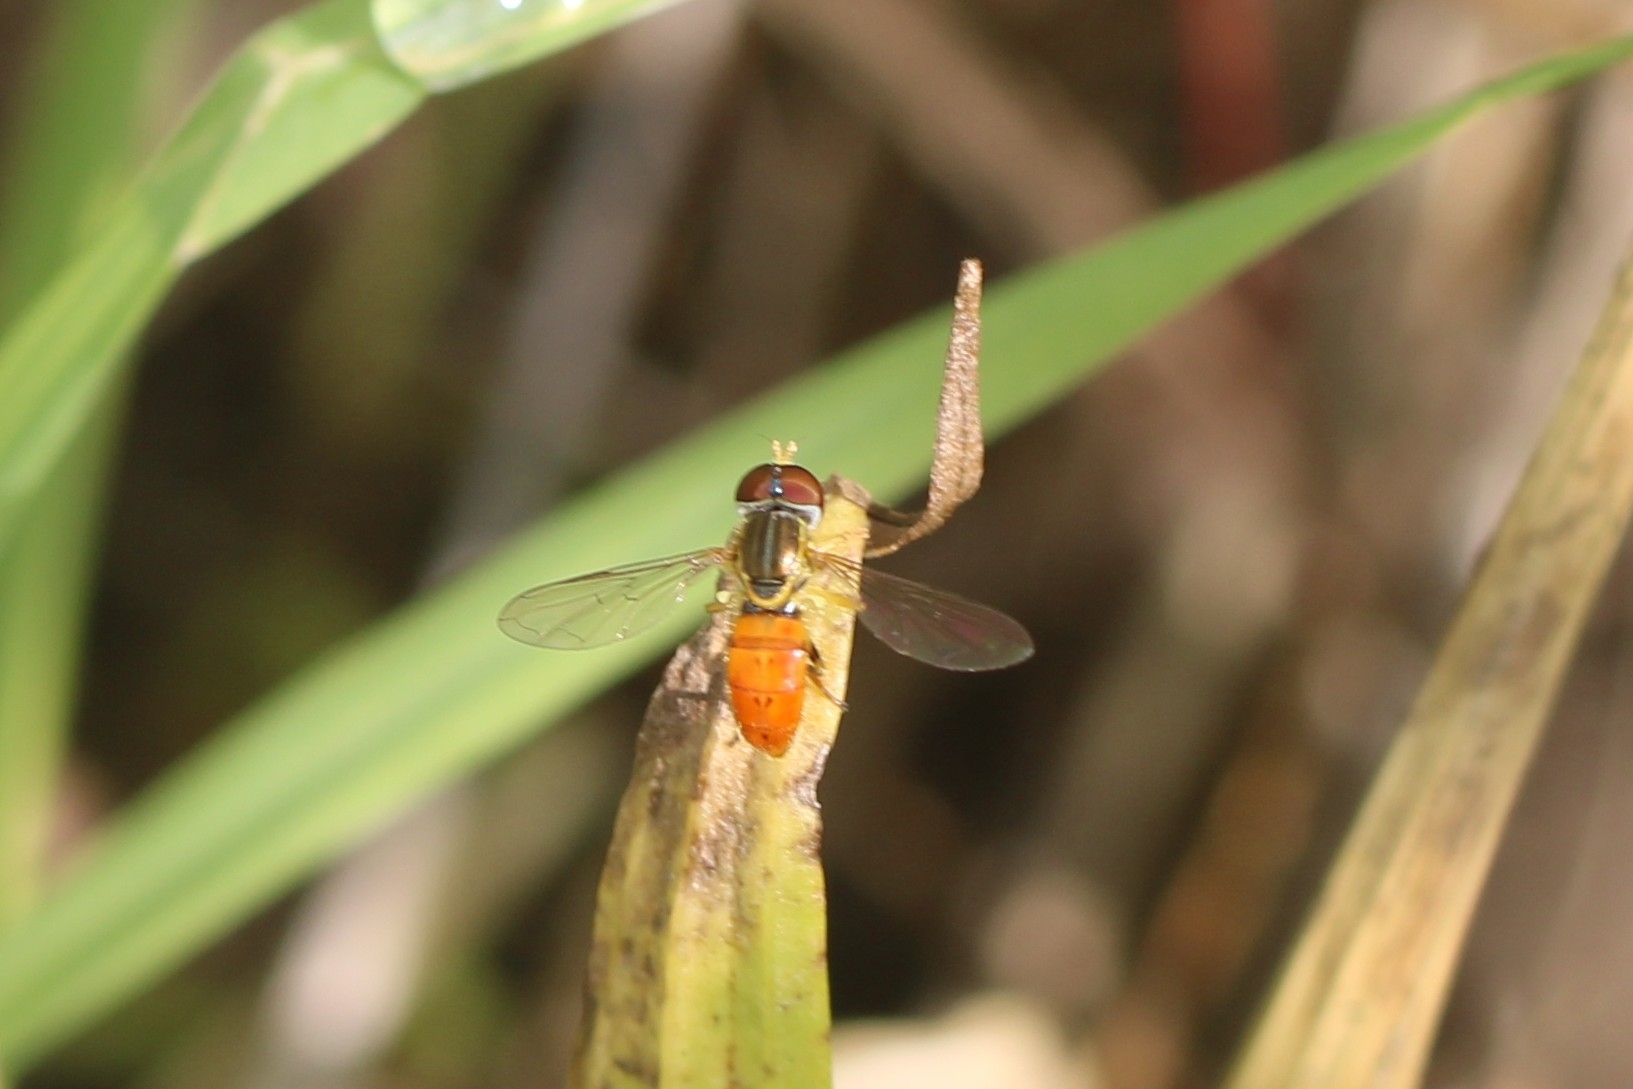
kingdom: Animalia
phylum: Arthropoda
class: Insecta
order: Diptera
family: Syrphidae
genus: Toxomerus
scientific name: Toxomerus boscii
